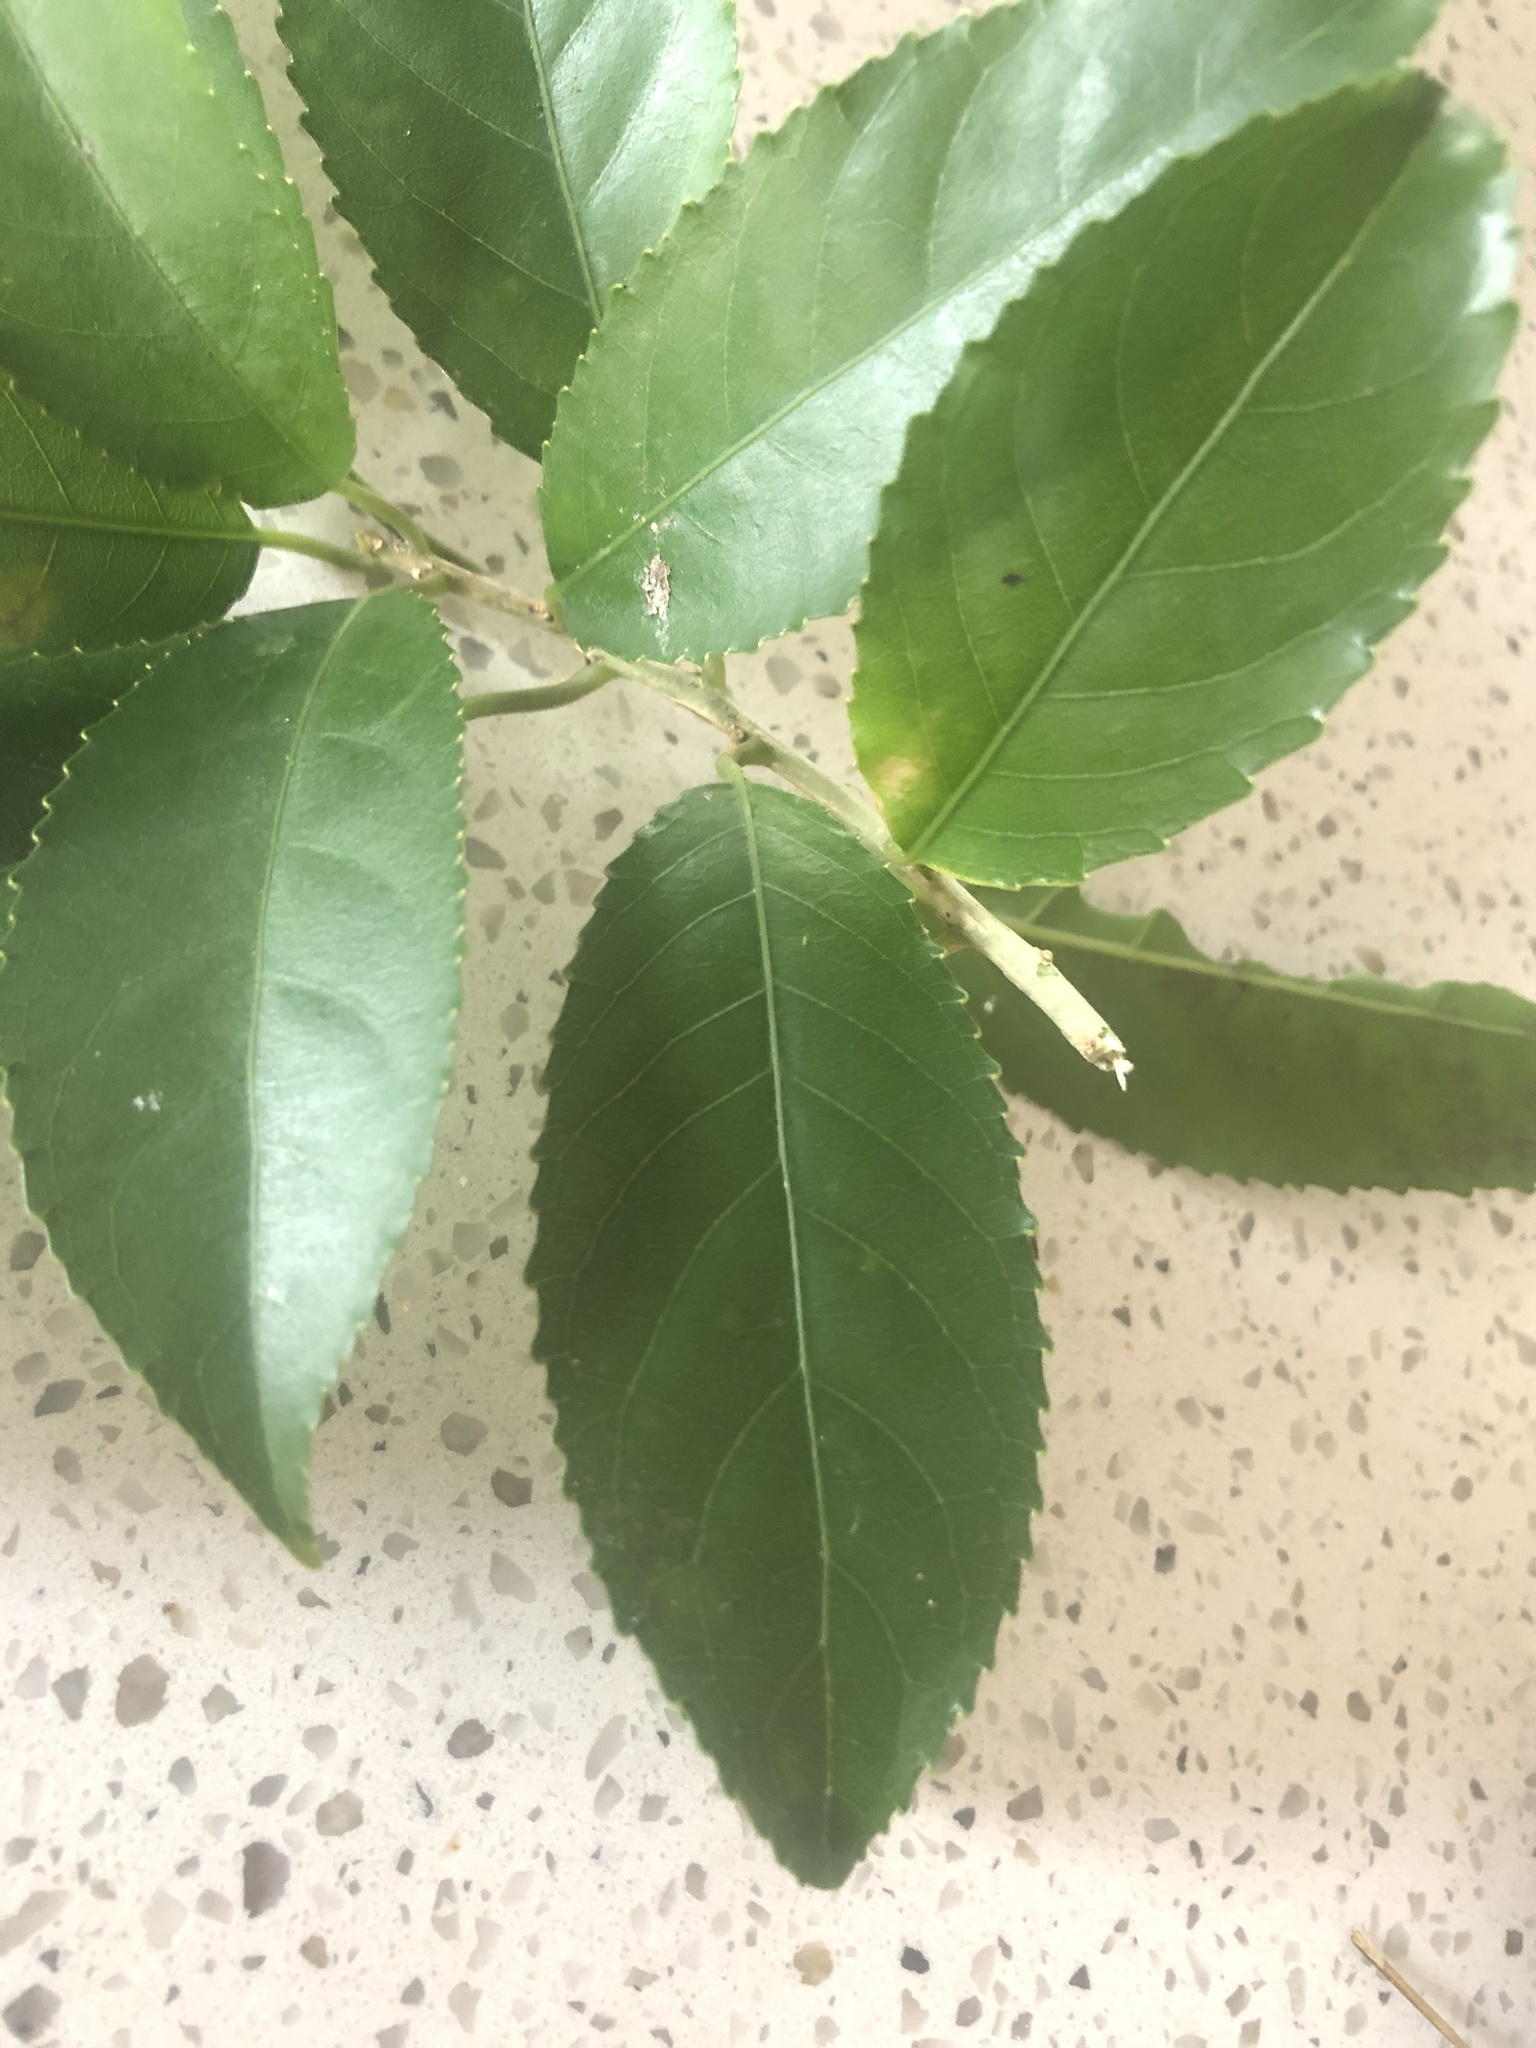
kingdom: Plantae
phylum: Tracheophyta
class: Magnoliopsida
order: Malpighiales
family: Violaceae
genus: Melicytus
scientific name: Melicytus ramiflorus
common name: Mahoe
